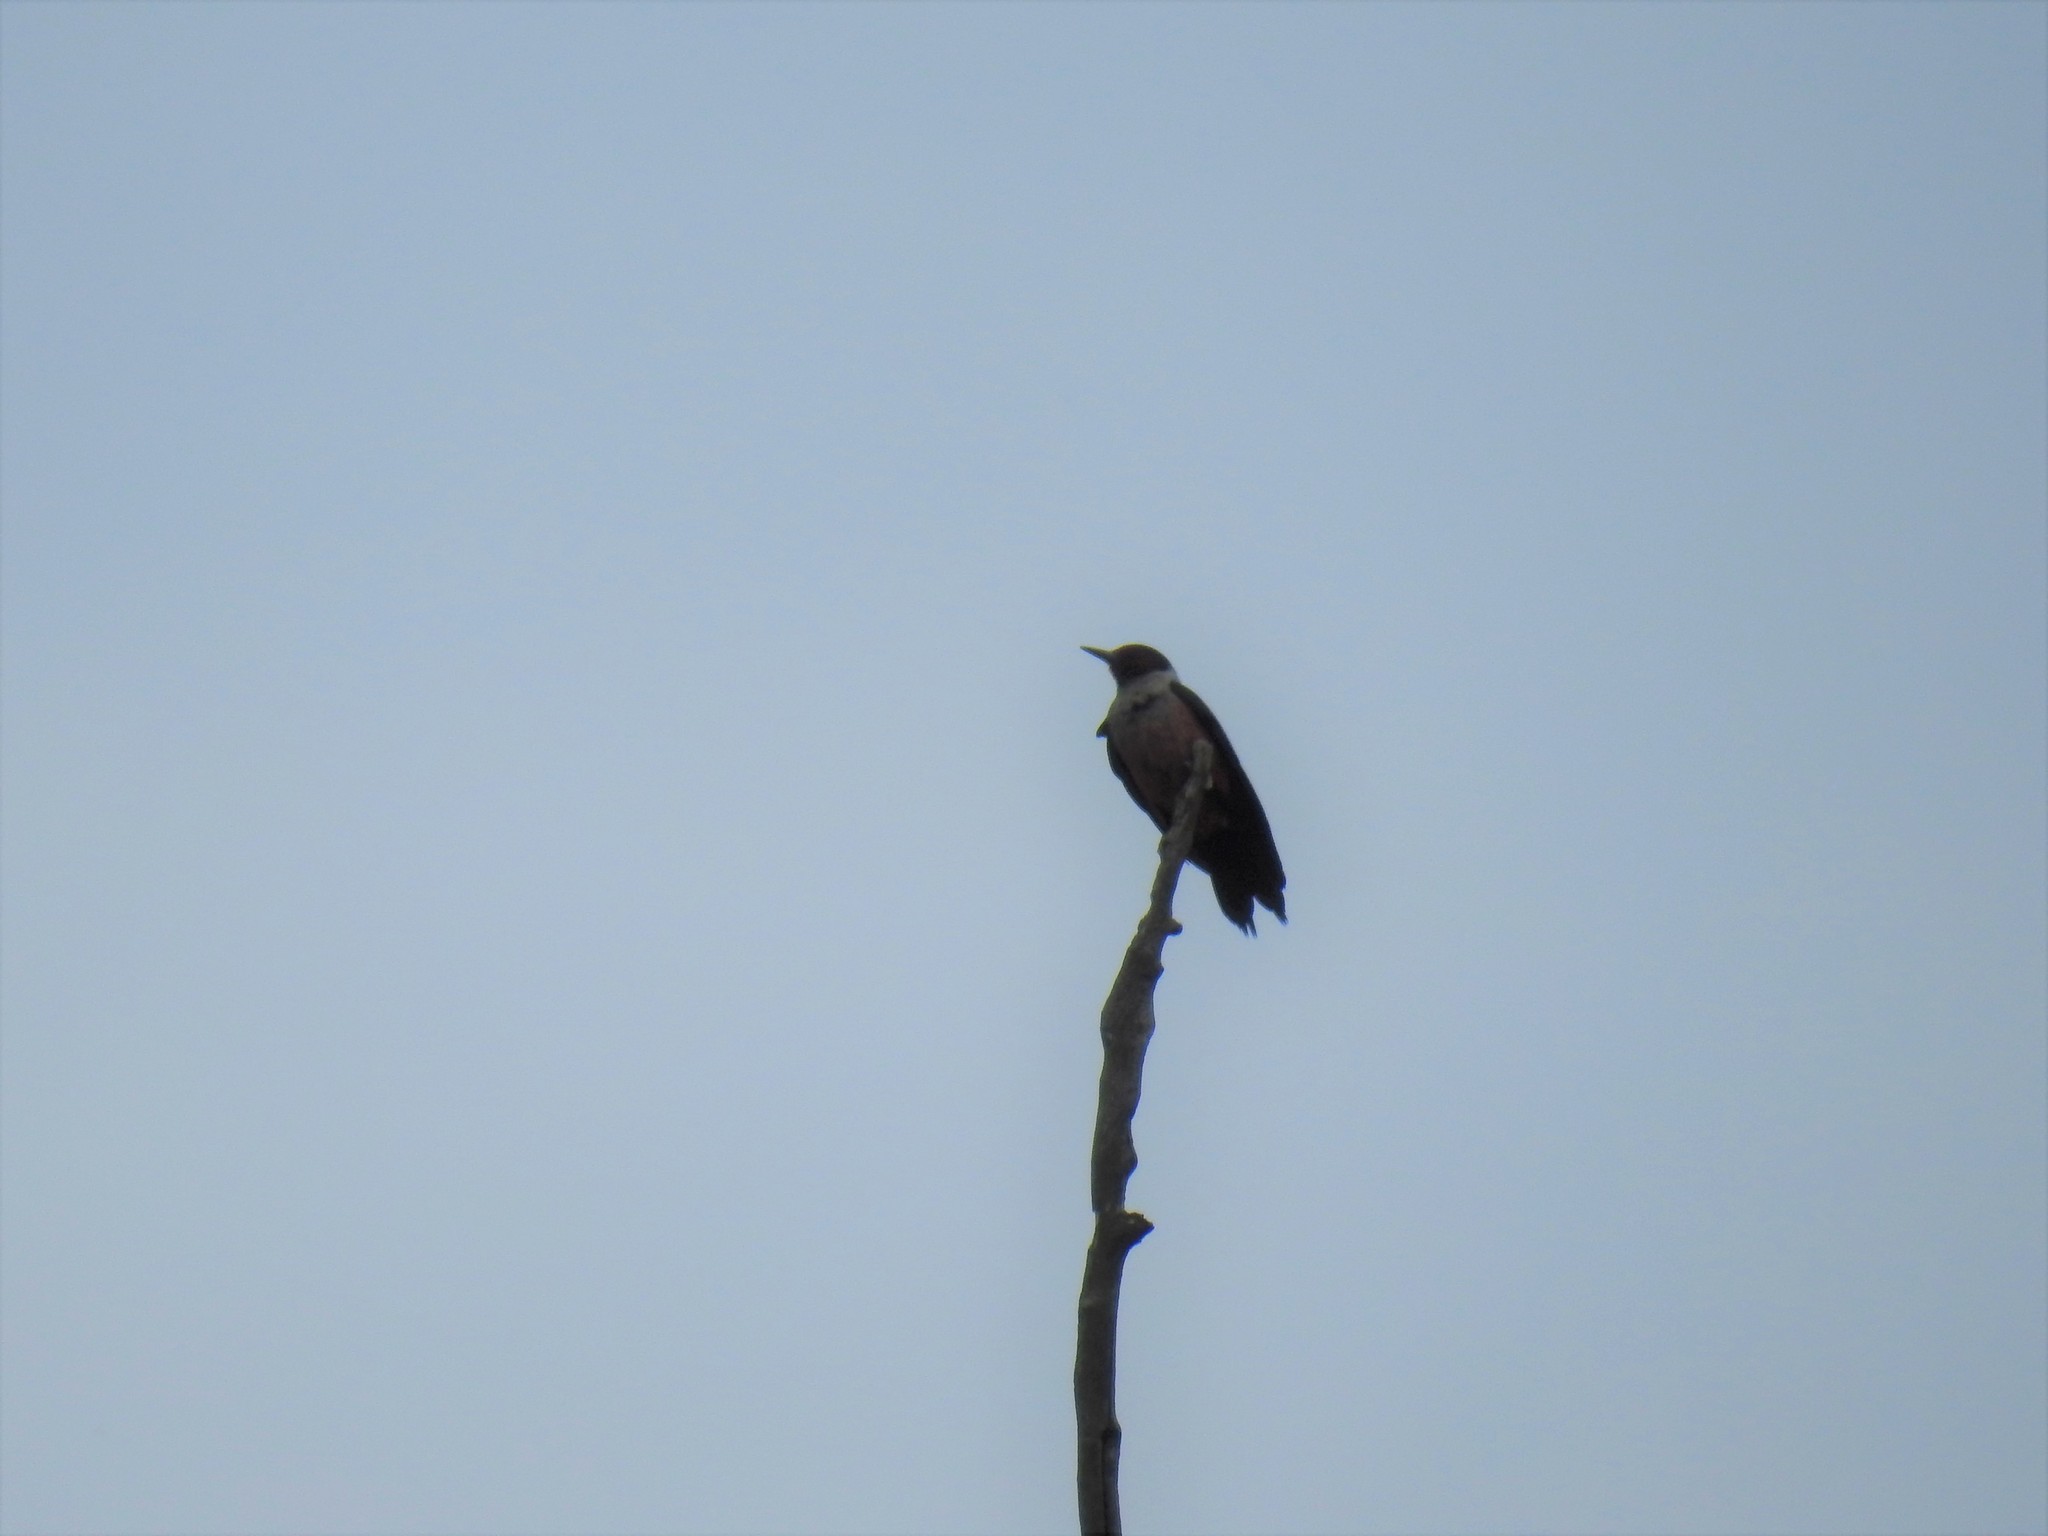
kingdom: Animalia
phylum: Chordata
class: Aves
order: Piciformes
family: Picidae
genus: Melanerpes
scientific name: Melanerpes lewis
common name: Lewis's woodpecker
